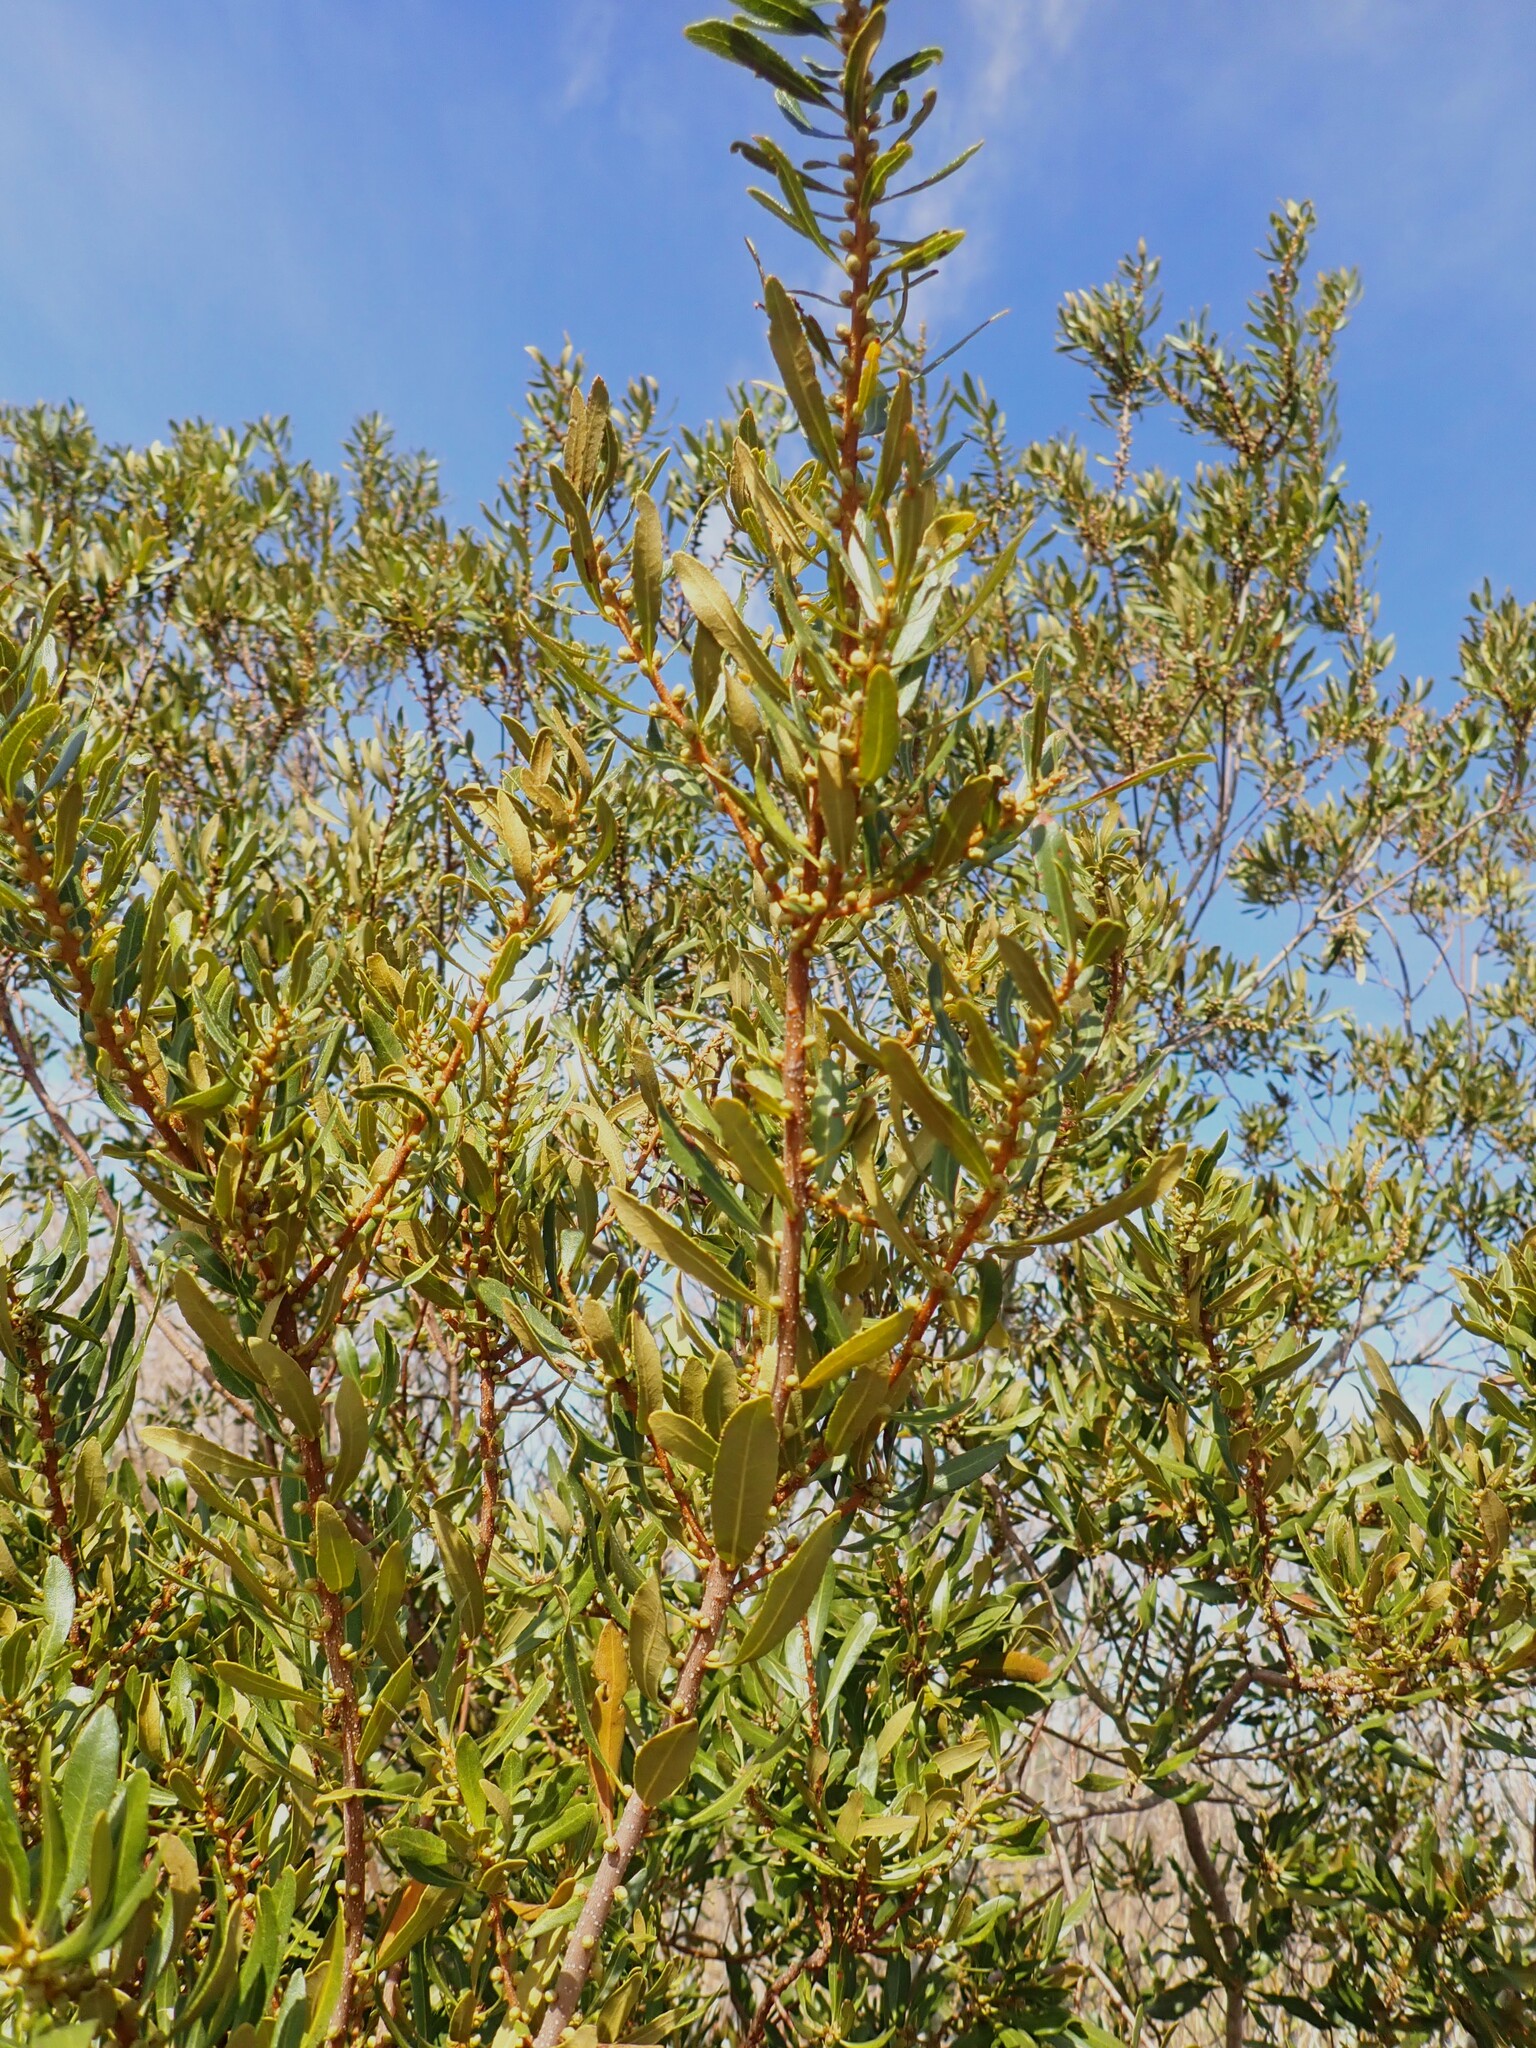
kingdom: Plantae
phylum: Tracheophyta
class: Magnoliopsida
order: Fagales
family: Myricaceae
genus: Morella
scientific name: Morella cerifera
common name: Wax myrtle
